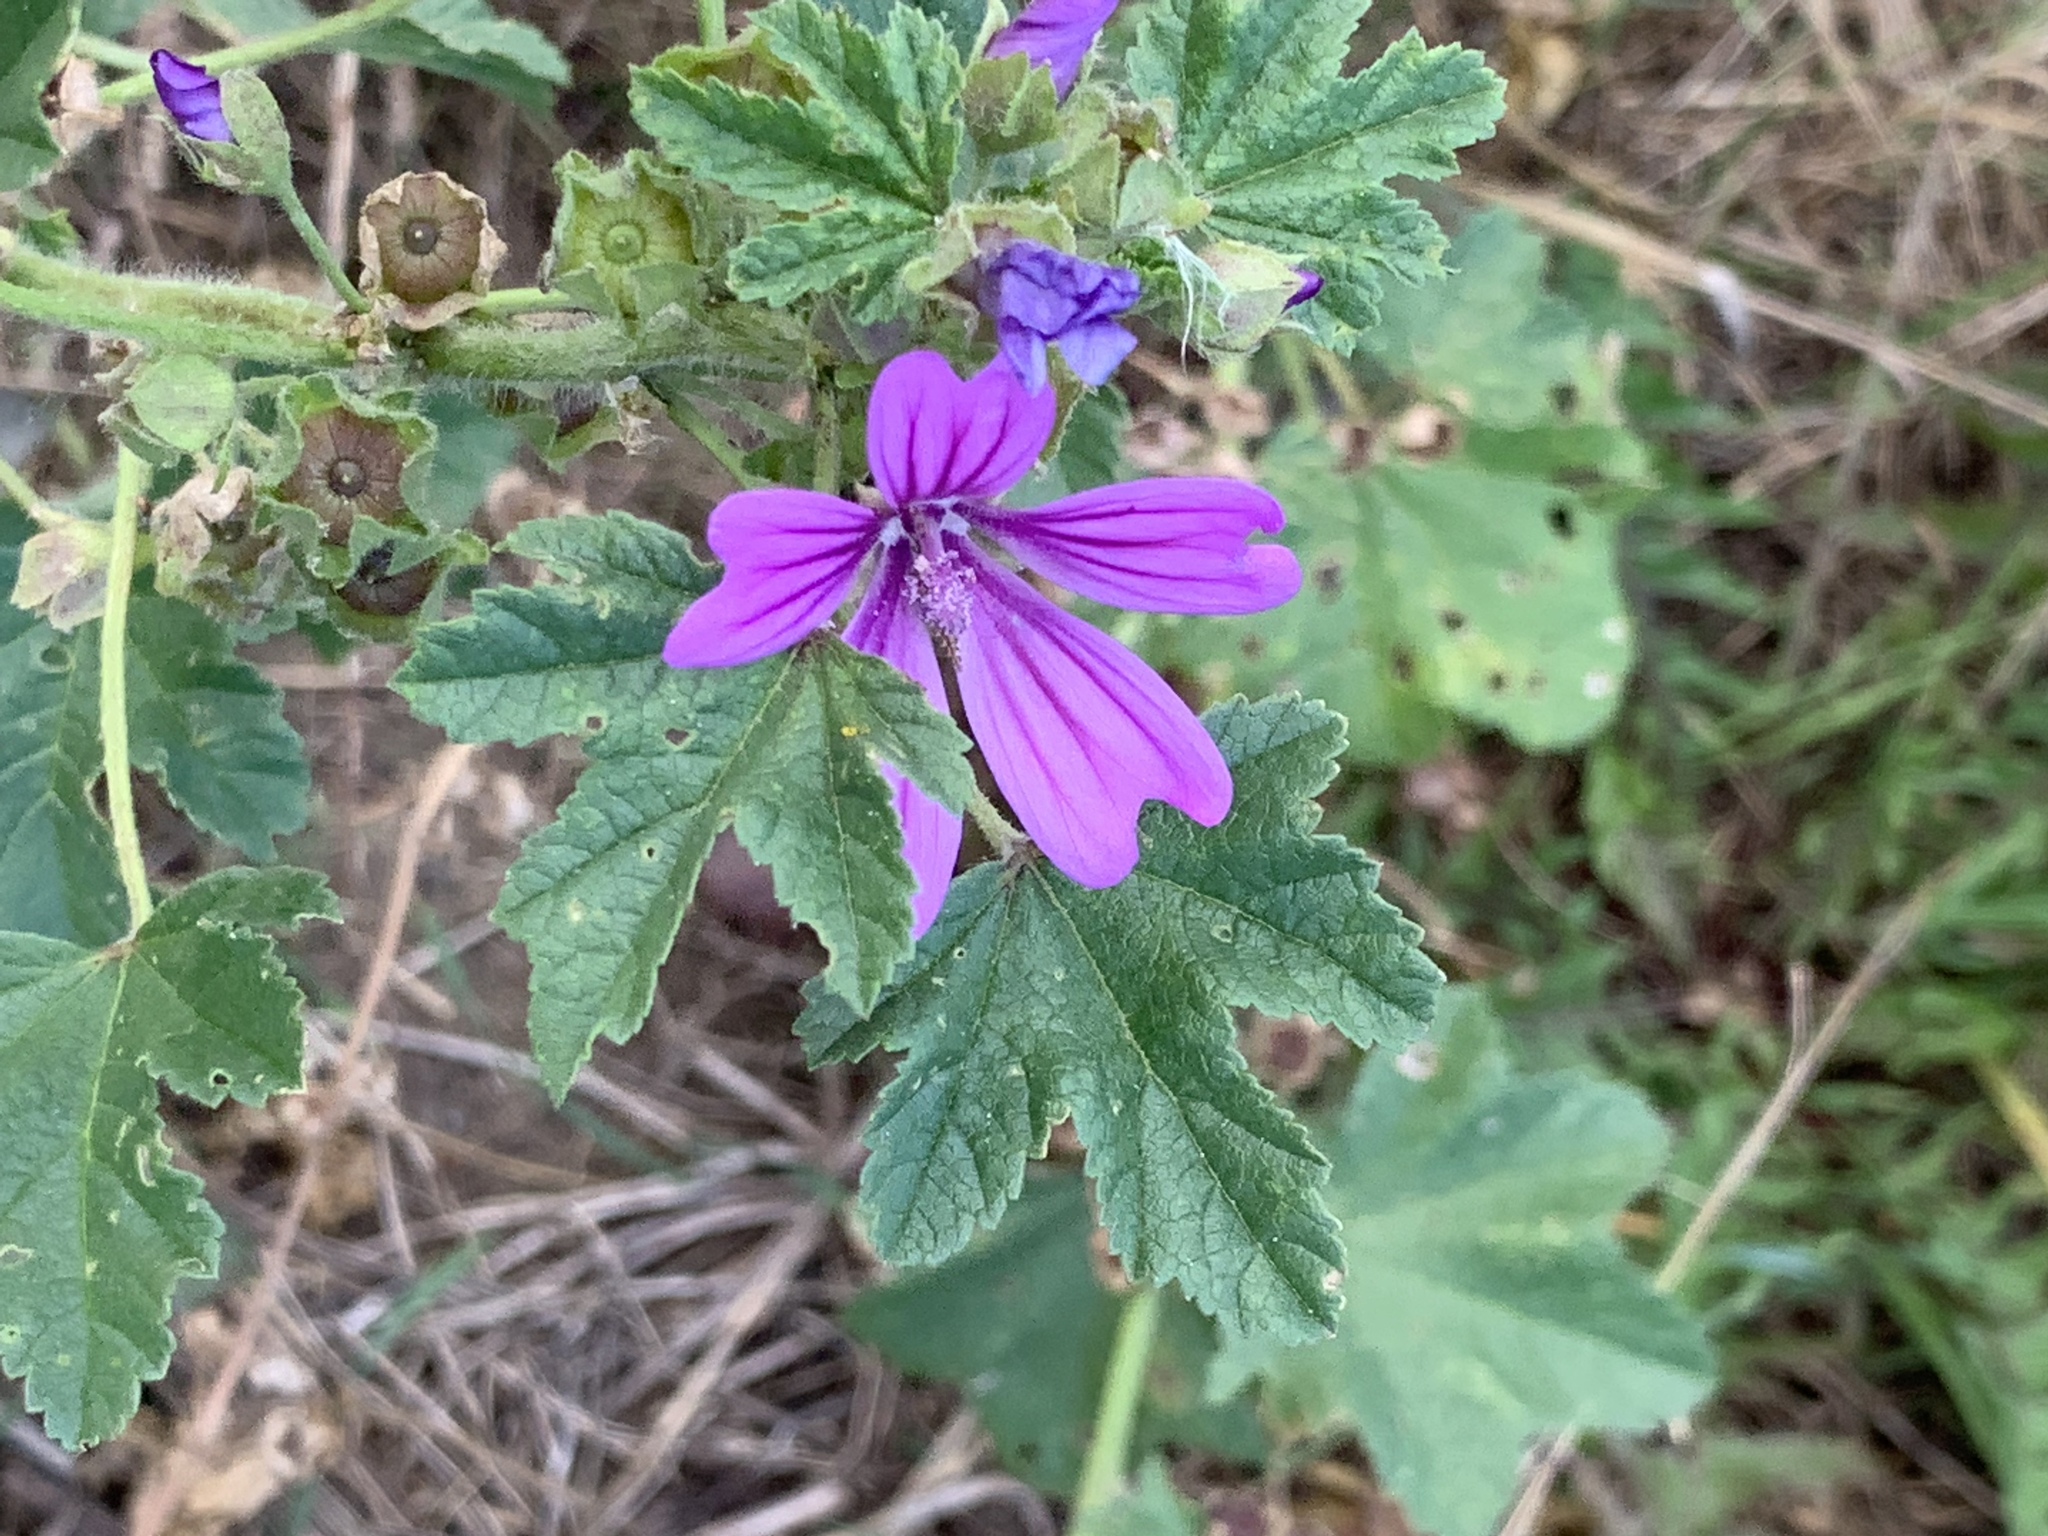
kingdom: Plantae
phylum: Tracheophyta
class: Magnoliopsida
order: Malvales
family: Malvaceae
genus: Malva
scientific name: Malva sylvestris
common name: Common mallow
